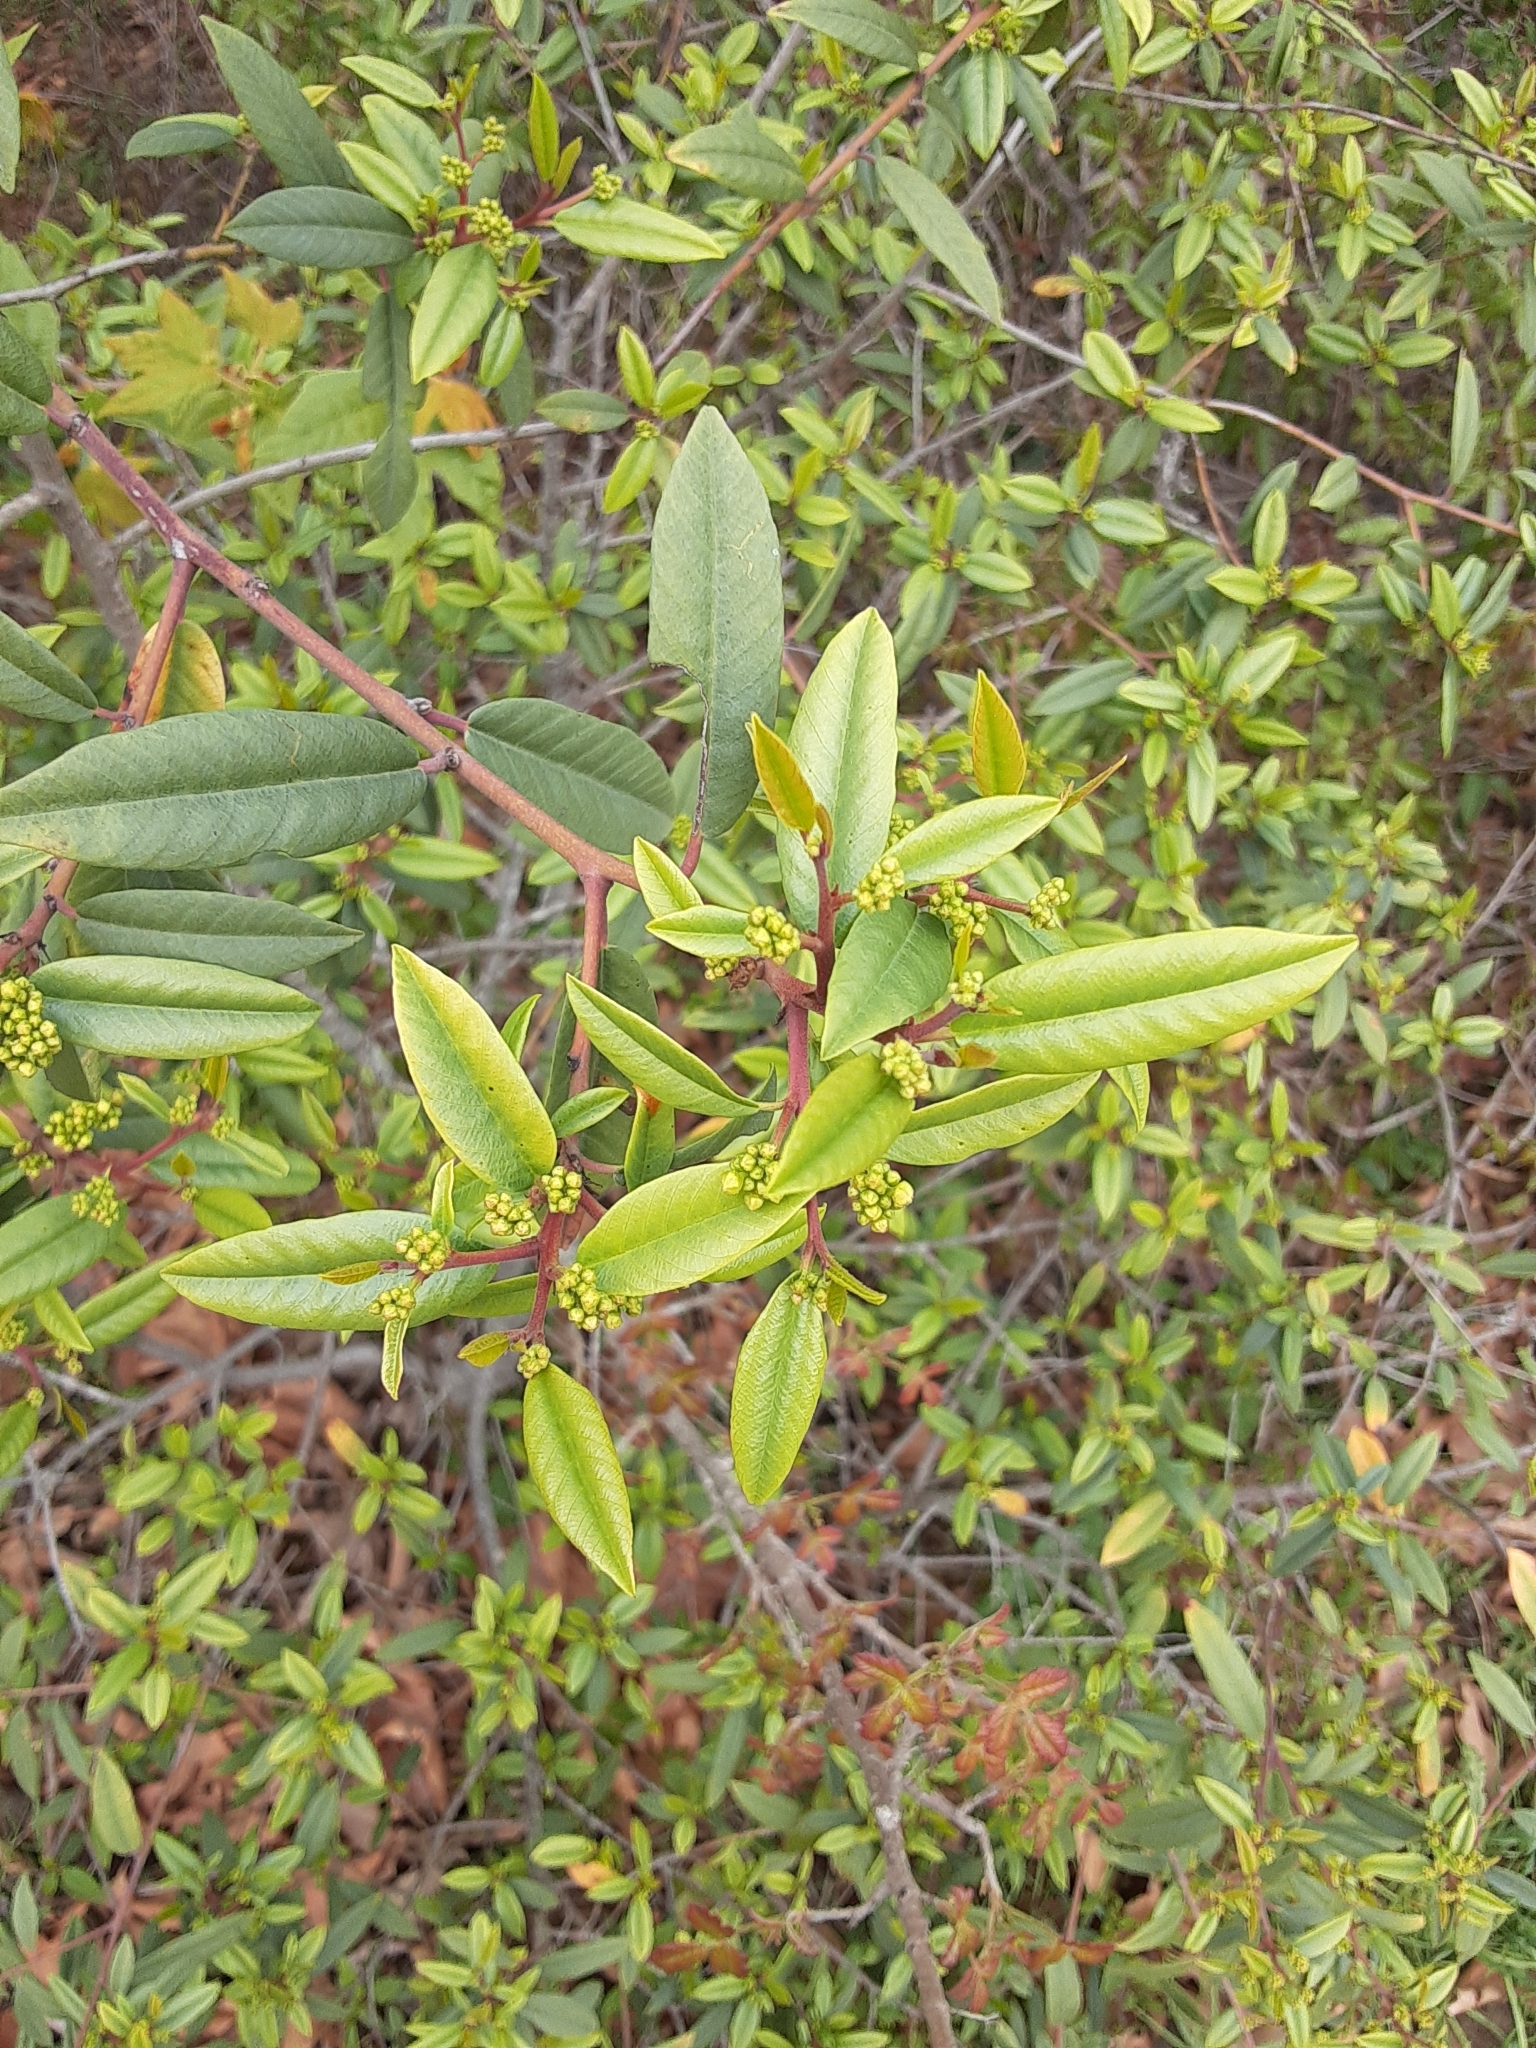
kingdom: Plantae
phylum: Tracheophyta
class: Magnoliopsida
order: Rosales
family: Rhamnaceae
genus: Frangula
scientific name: Frangula californica
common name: California buckthorn
